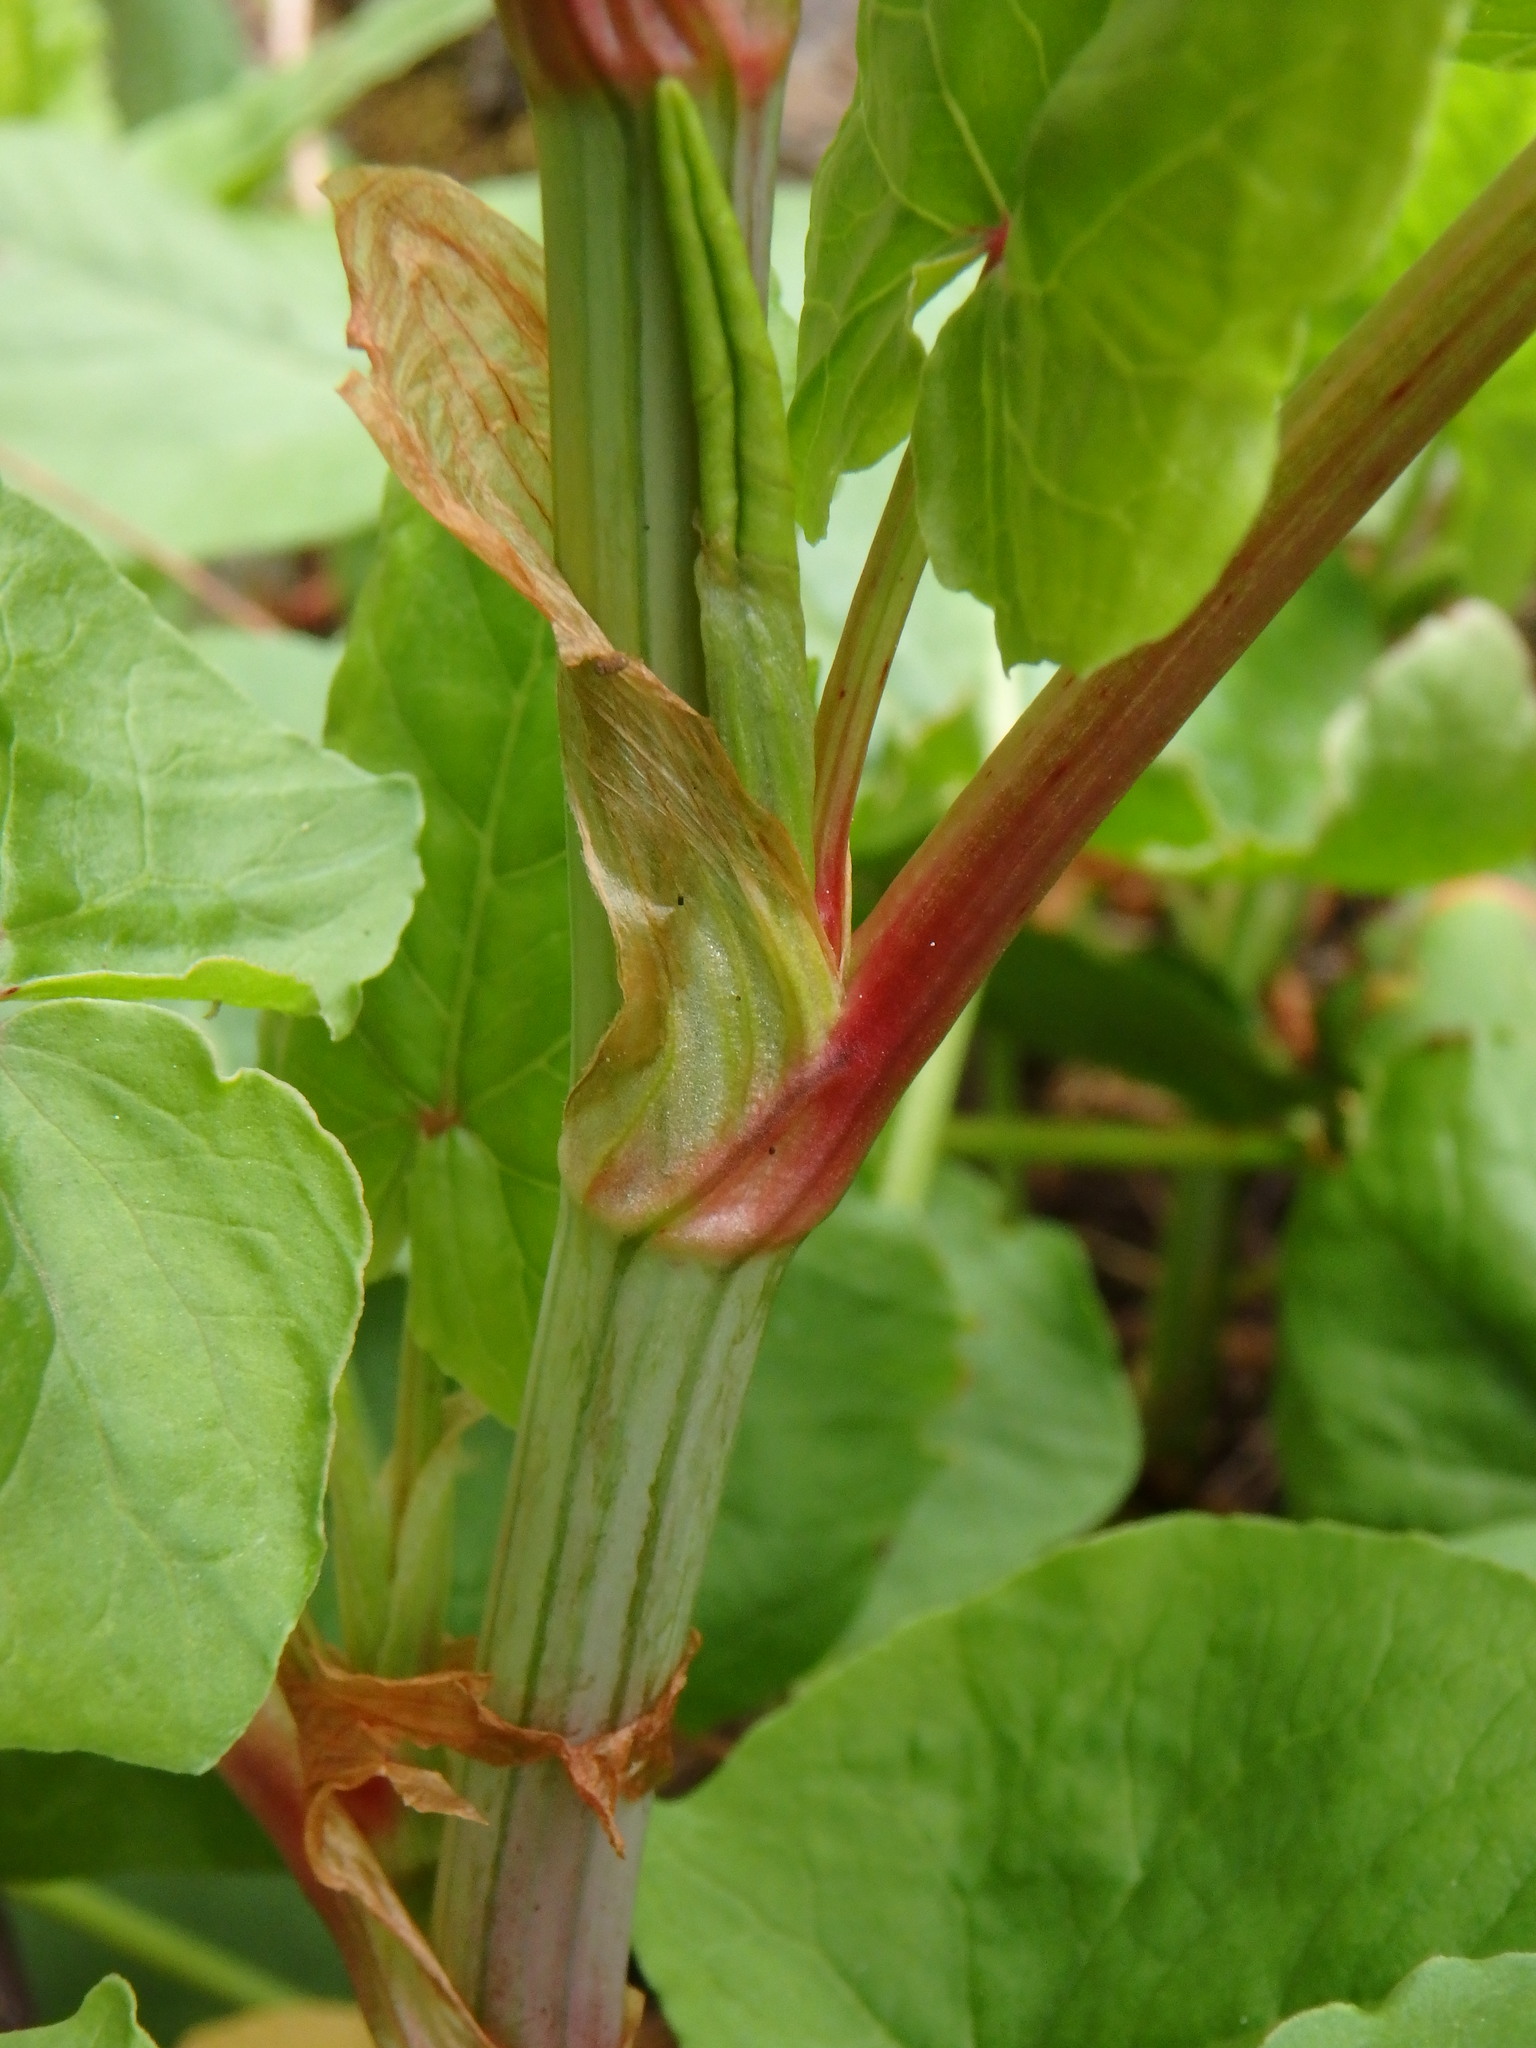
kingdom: Plantae
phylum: Tracheophyta
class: Magnoliopsida
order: Caryophyllales
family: Polygonaceae
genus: Rumex
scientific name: Rumex maderensis
